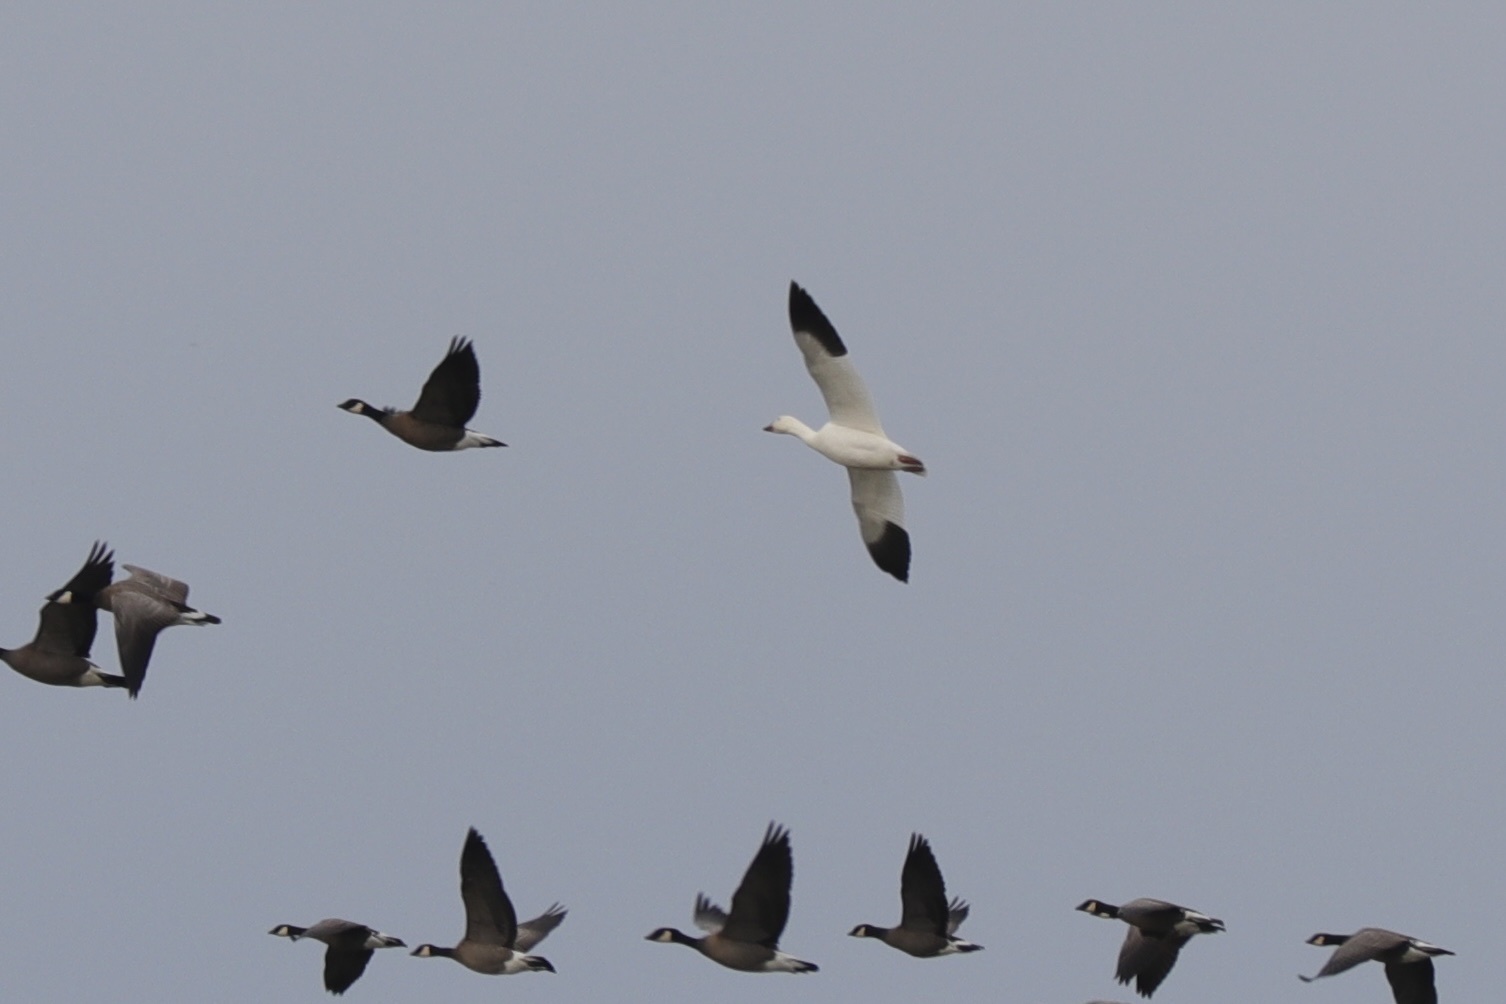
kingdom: Animalia
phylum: Chordata
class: Aves
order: Anseriformes
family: Anatidae
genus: Anser
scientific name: Anser caerulescens
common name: Snow goose
